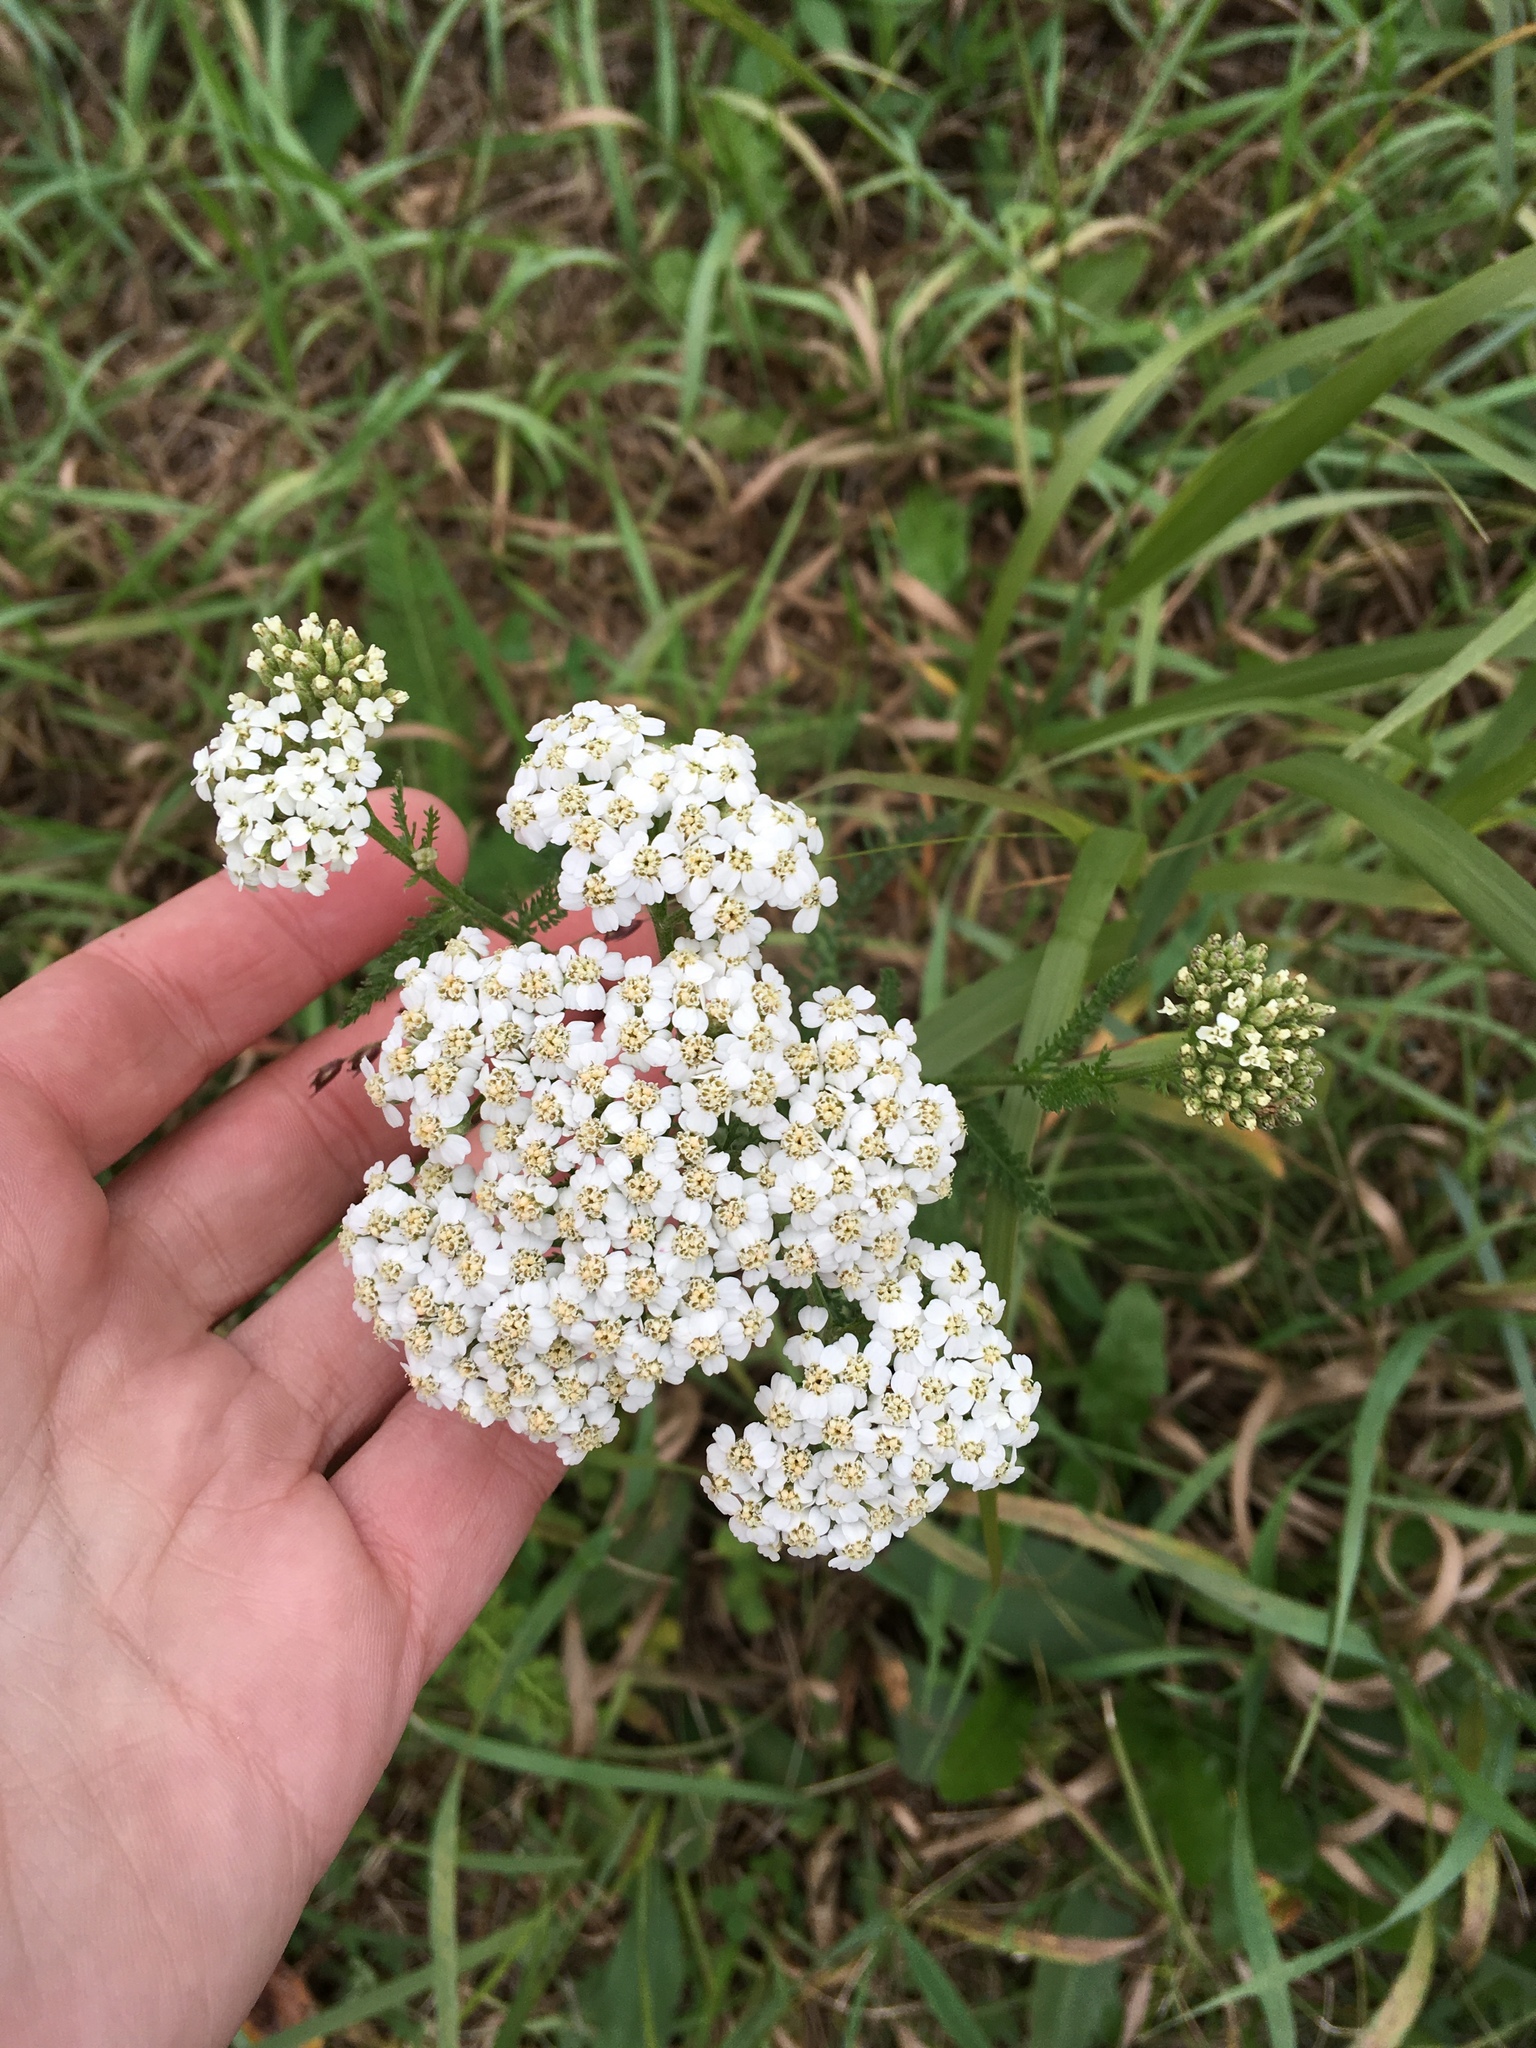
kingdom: Plantae
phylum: Tracheophyta
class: Magnoliopsida
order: Asterales
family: Asteraceae
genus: Achillea
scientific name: Achillea millefolium
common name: Yarrow
